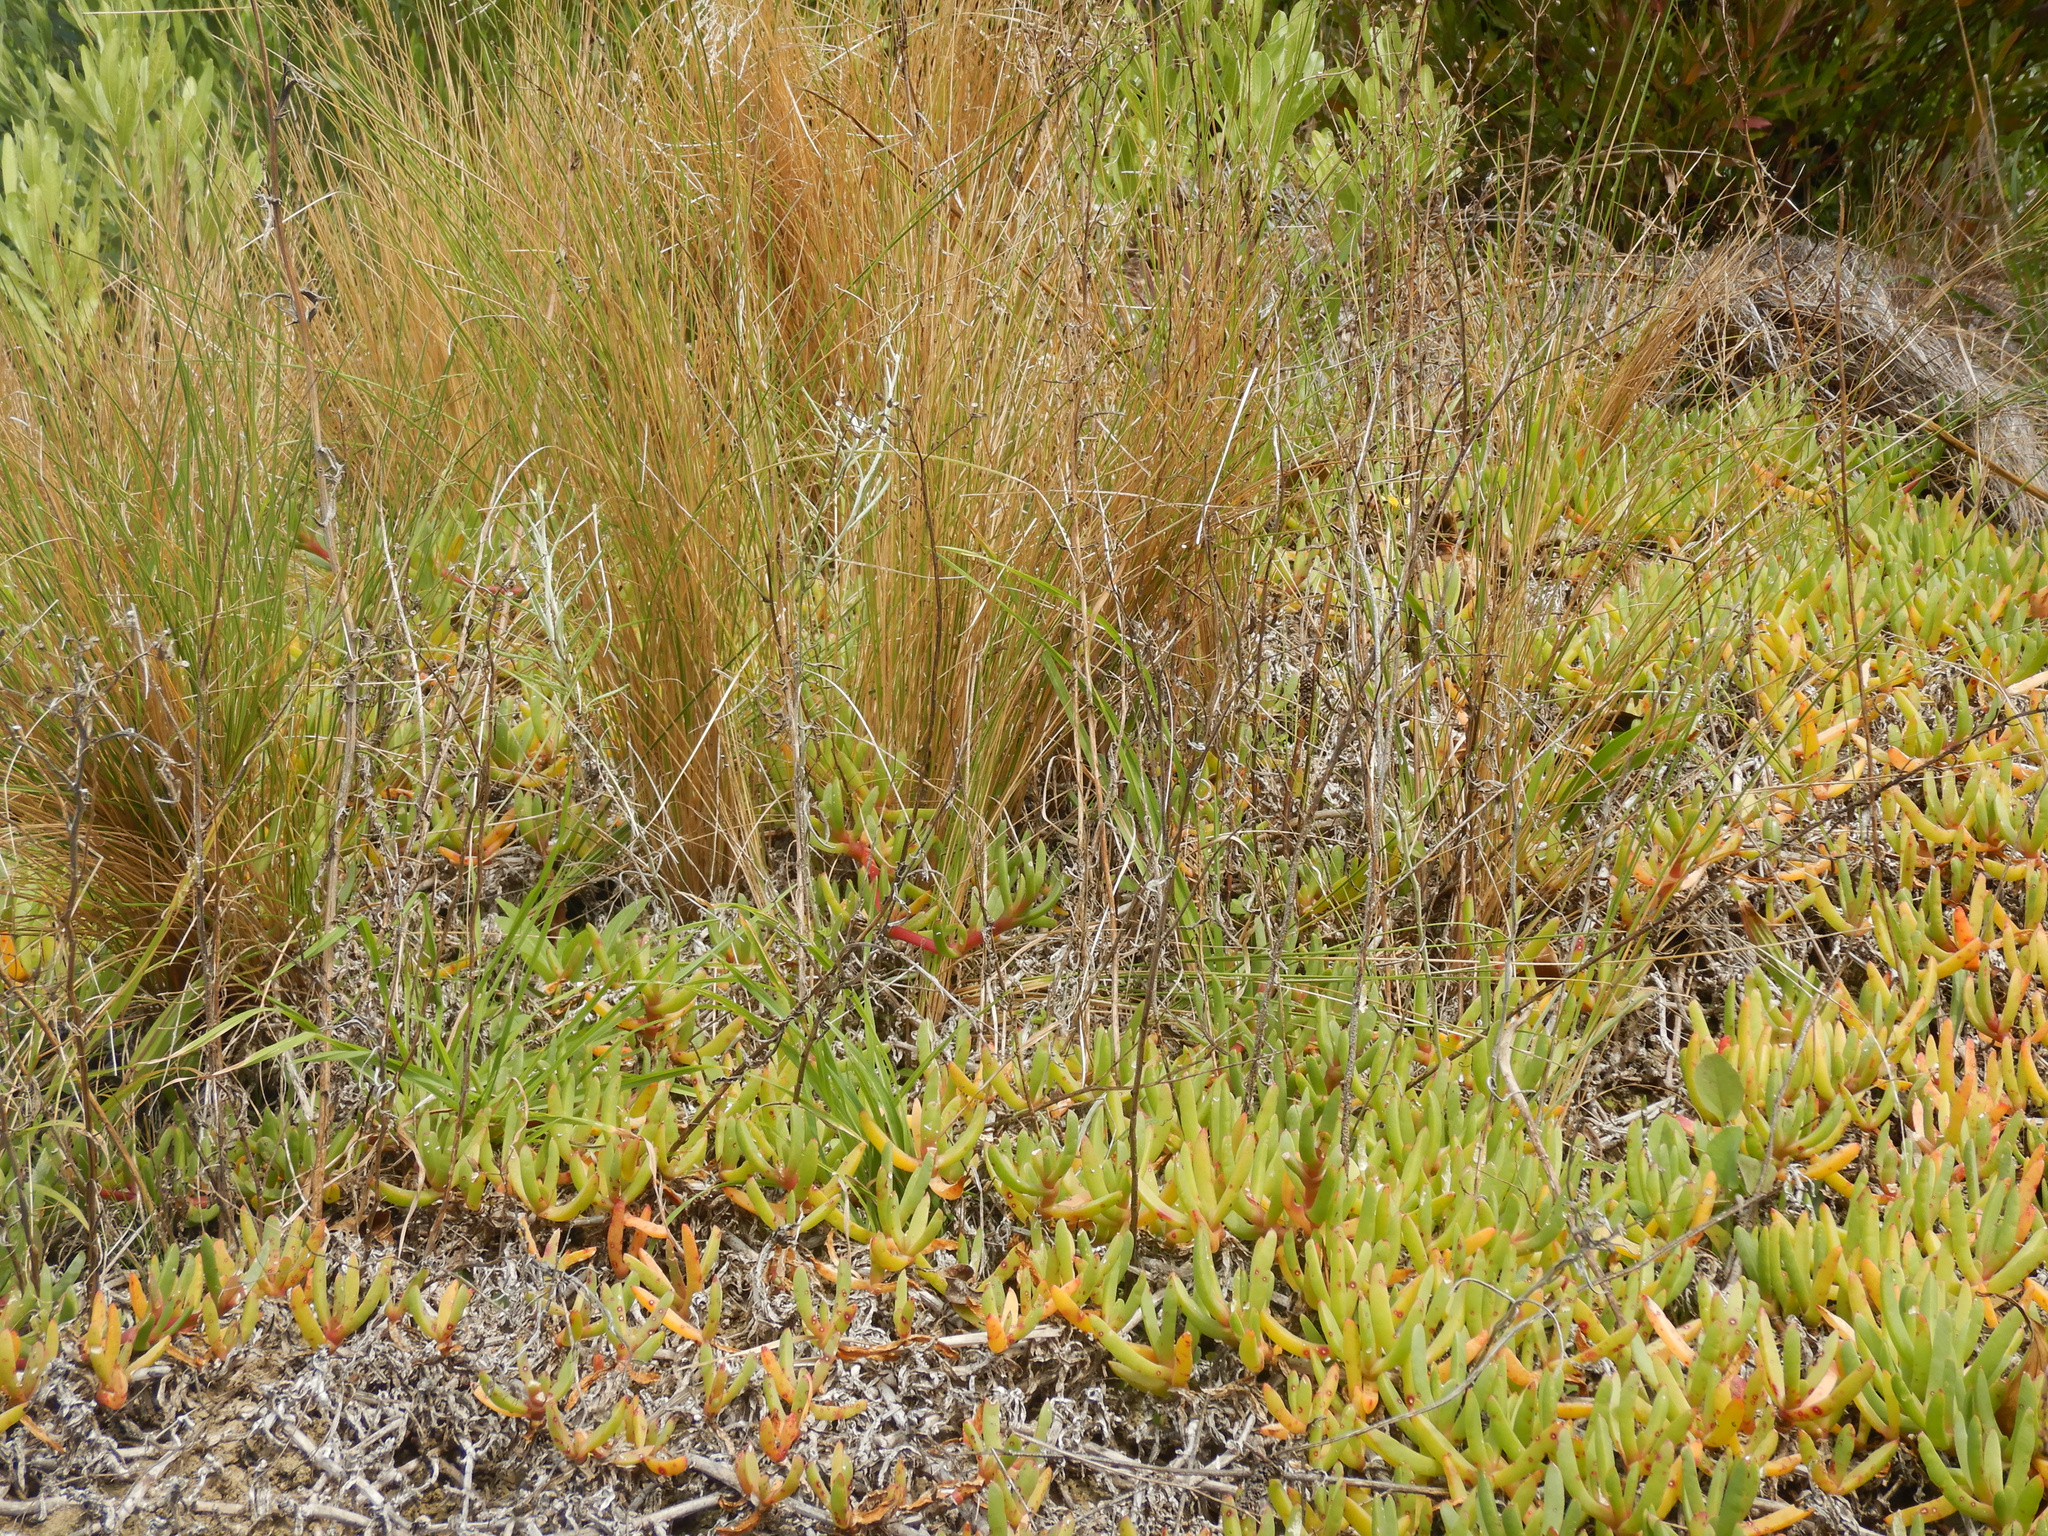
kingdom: Plantae
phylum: Tracheophyta
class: Magnoliopsida
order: Asterales
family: Asteraceae
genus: Senecio
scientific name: Senecio quadridentatus
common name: Cotton fireweed
